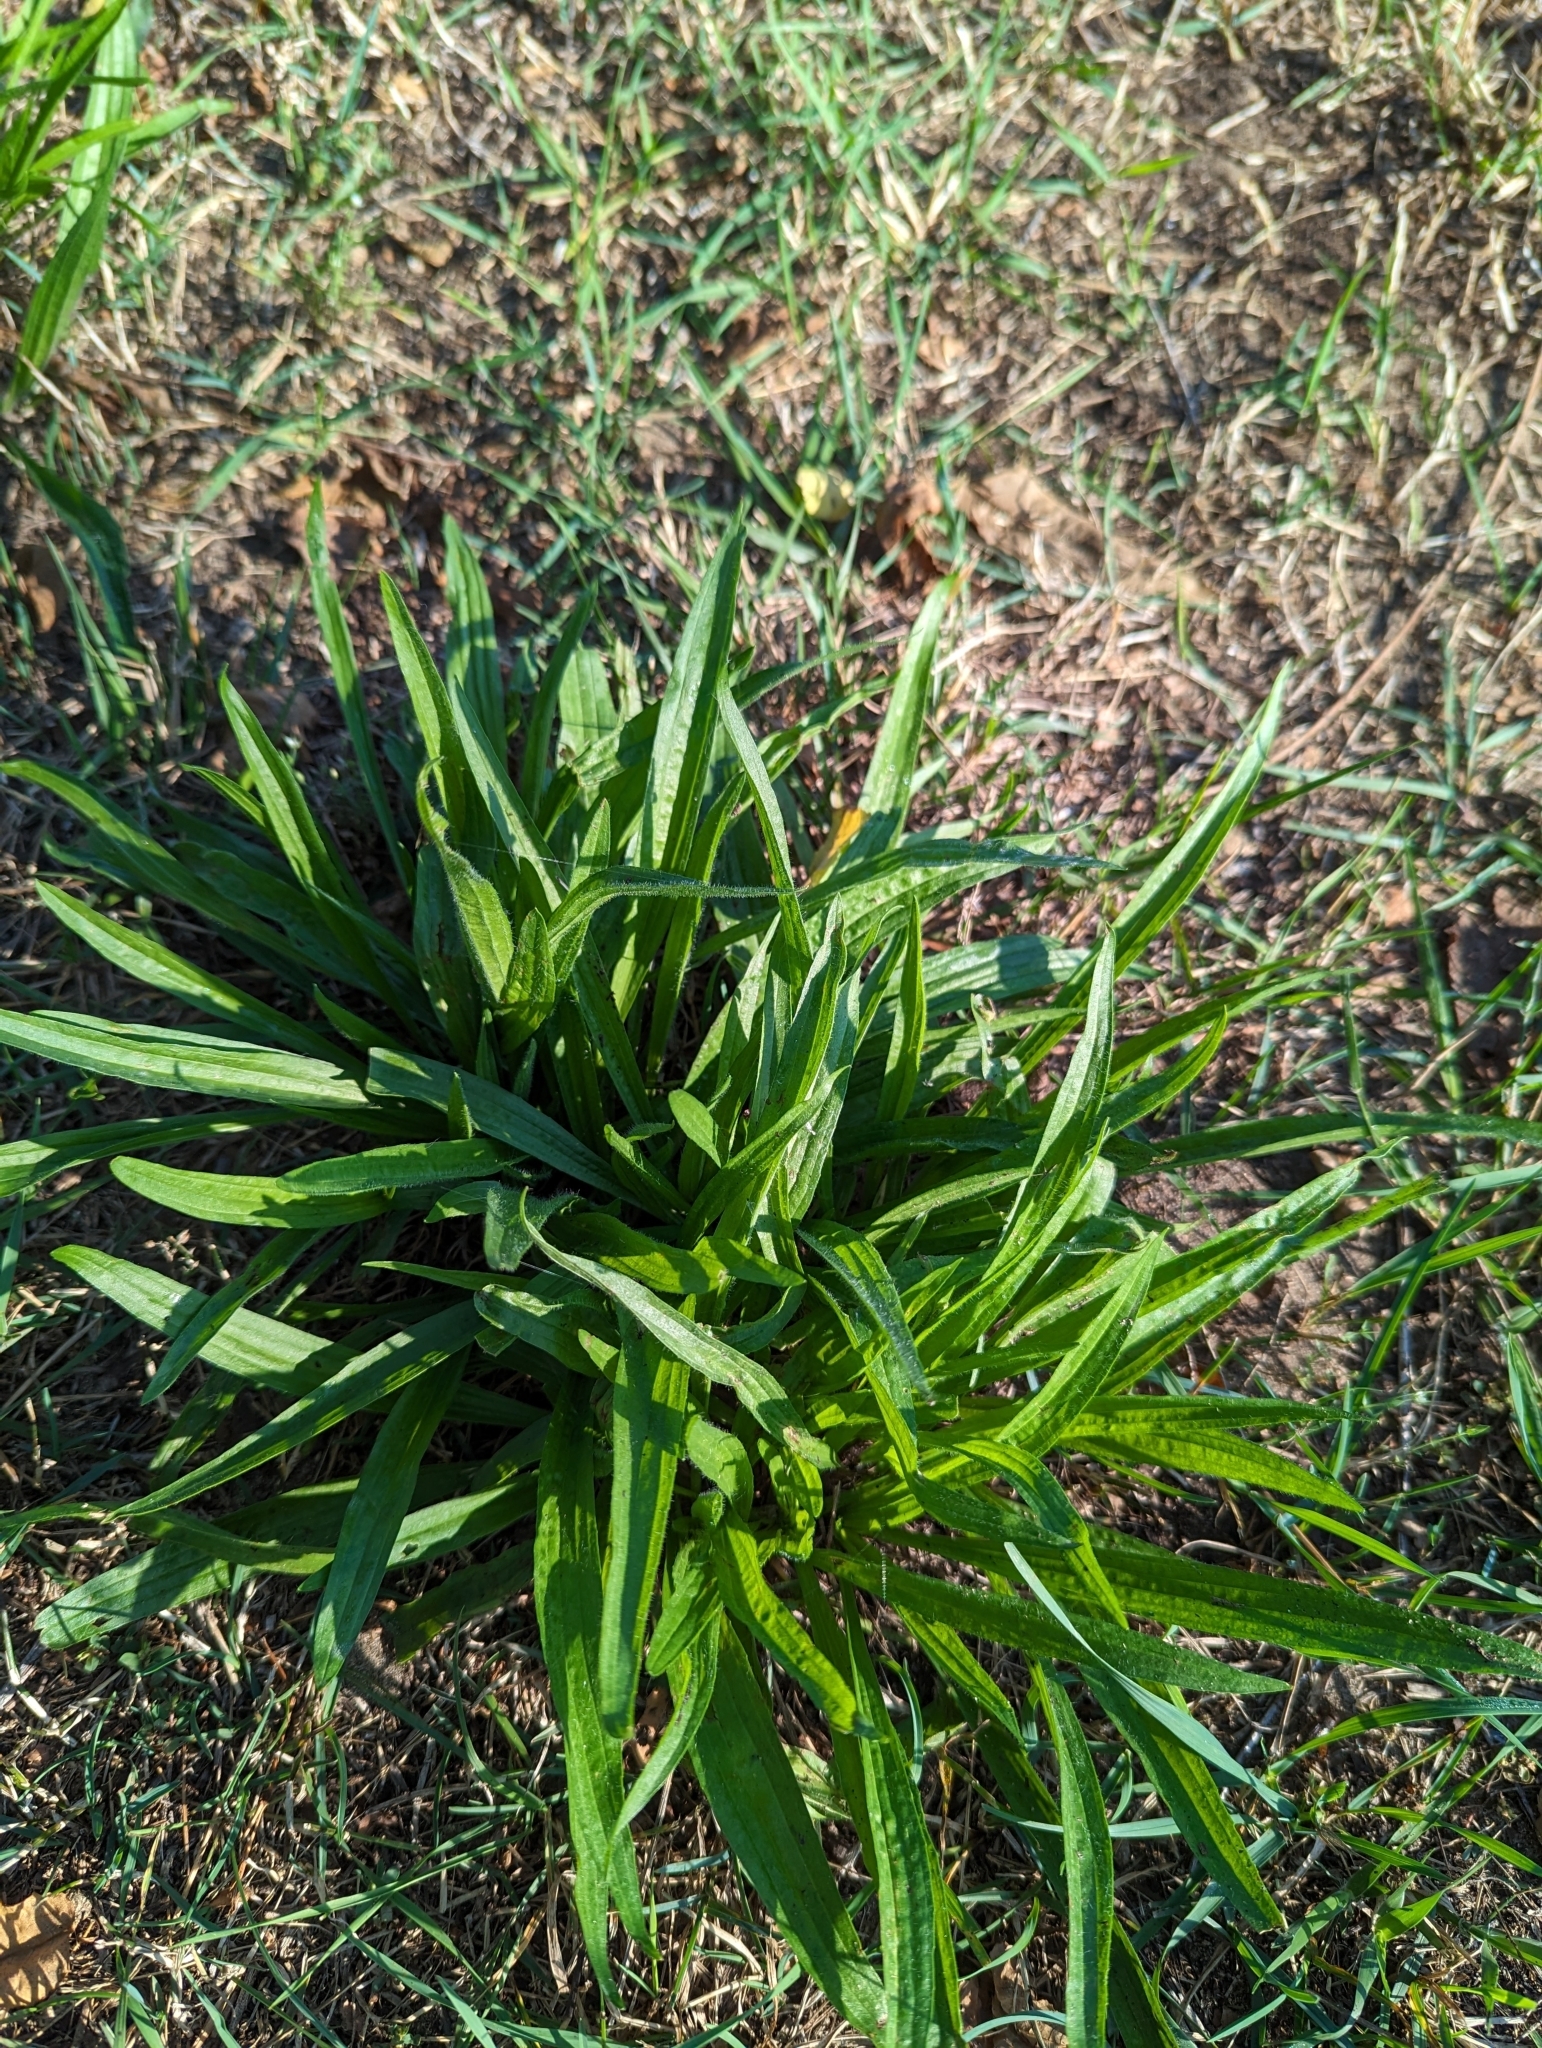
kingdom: Plantae
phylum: Tracheophyta
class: Magnoliopsida
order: Lamiales
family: Plantaginaceae
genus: Plantago
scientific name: Plantago lanceolata
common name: Ribwort plantain
